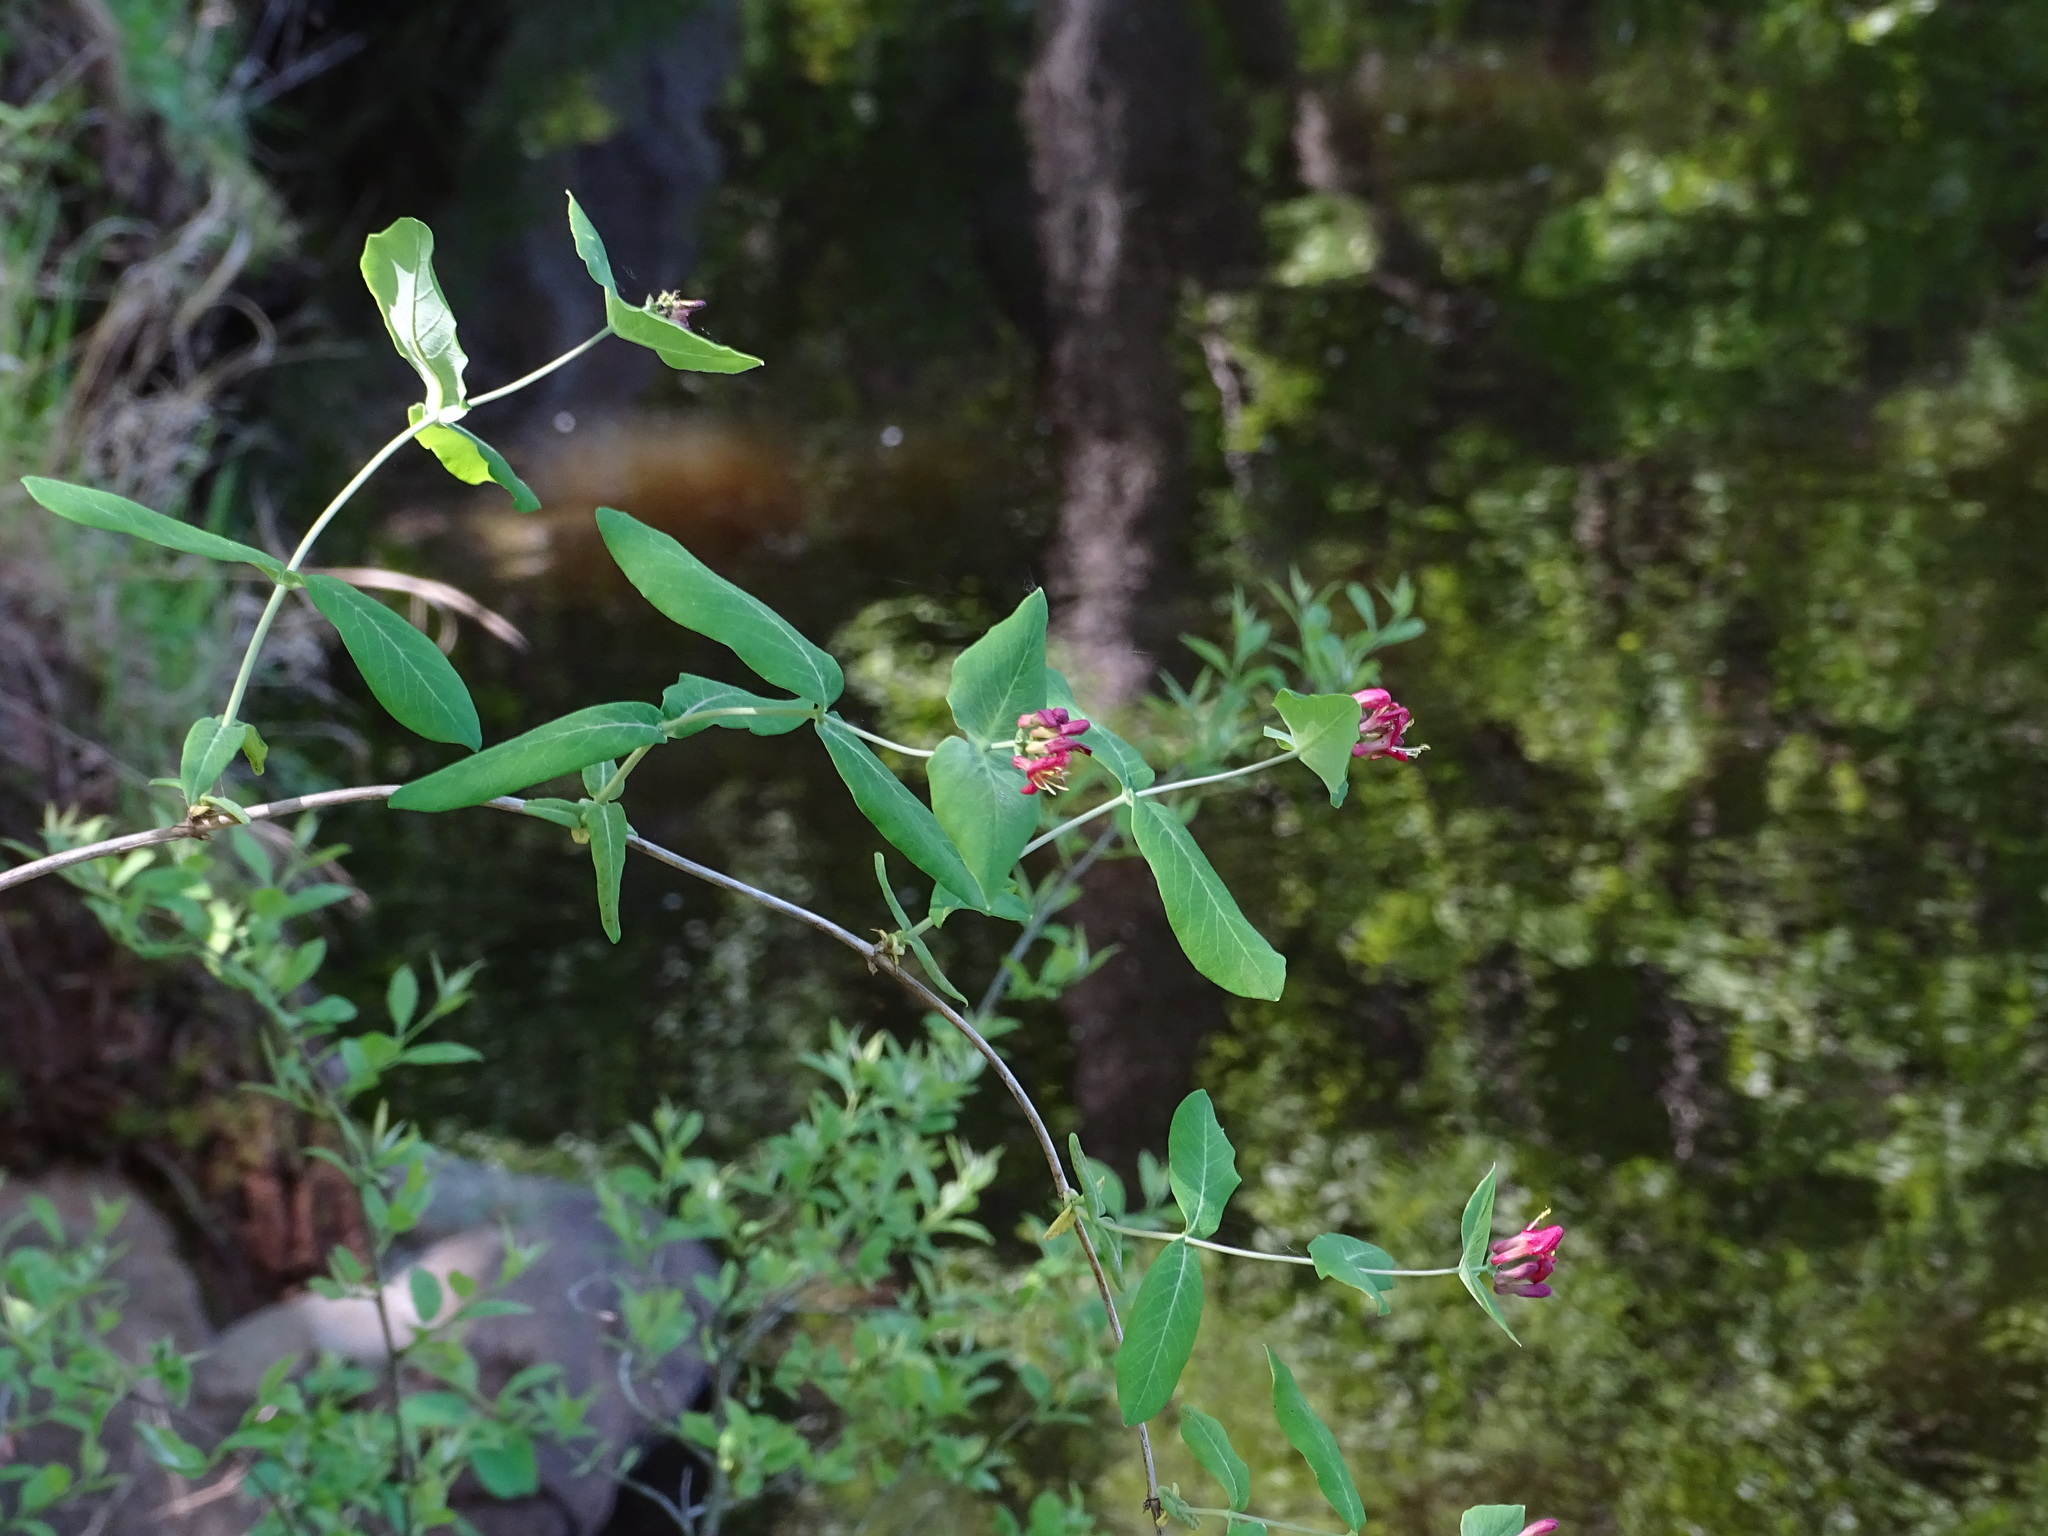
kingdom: Plantae
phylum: Tracheophyta
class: Magnoliopsida
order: Dipsacales
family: Caprifoliaceae
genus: Lonicera
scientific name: Lonicera dioica
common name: Limber honeysuckle
